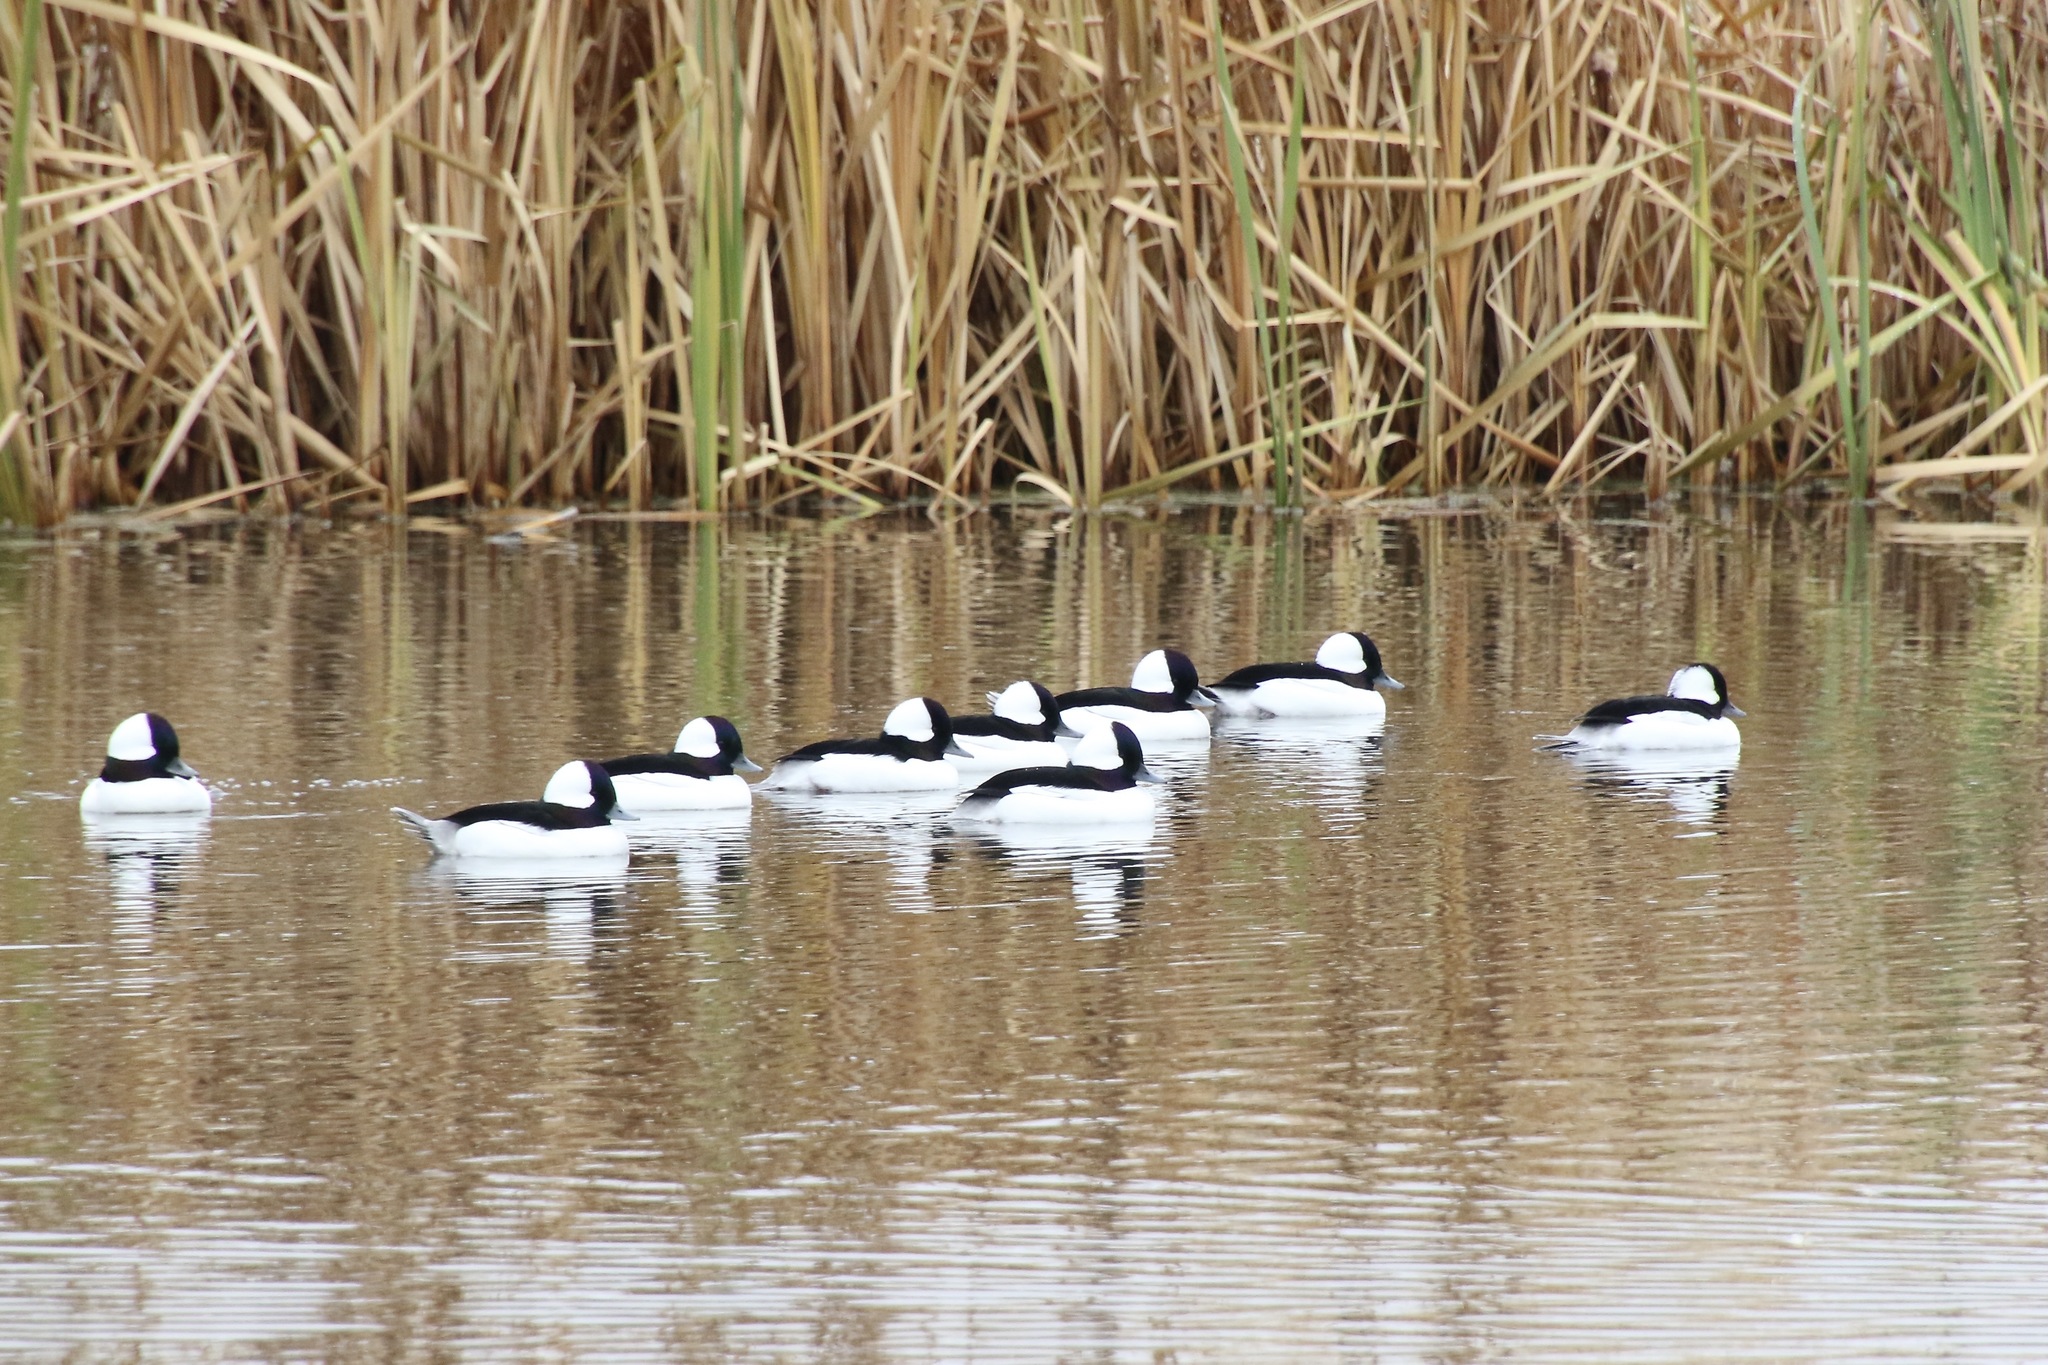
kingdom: Animalia
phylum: Chordata
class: Aves
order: Anseriformes
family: Anatidae
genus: Bucephala
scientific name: Bucephala albeola
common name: Bufflehead
